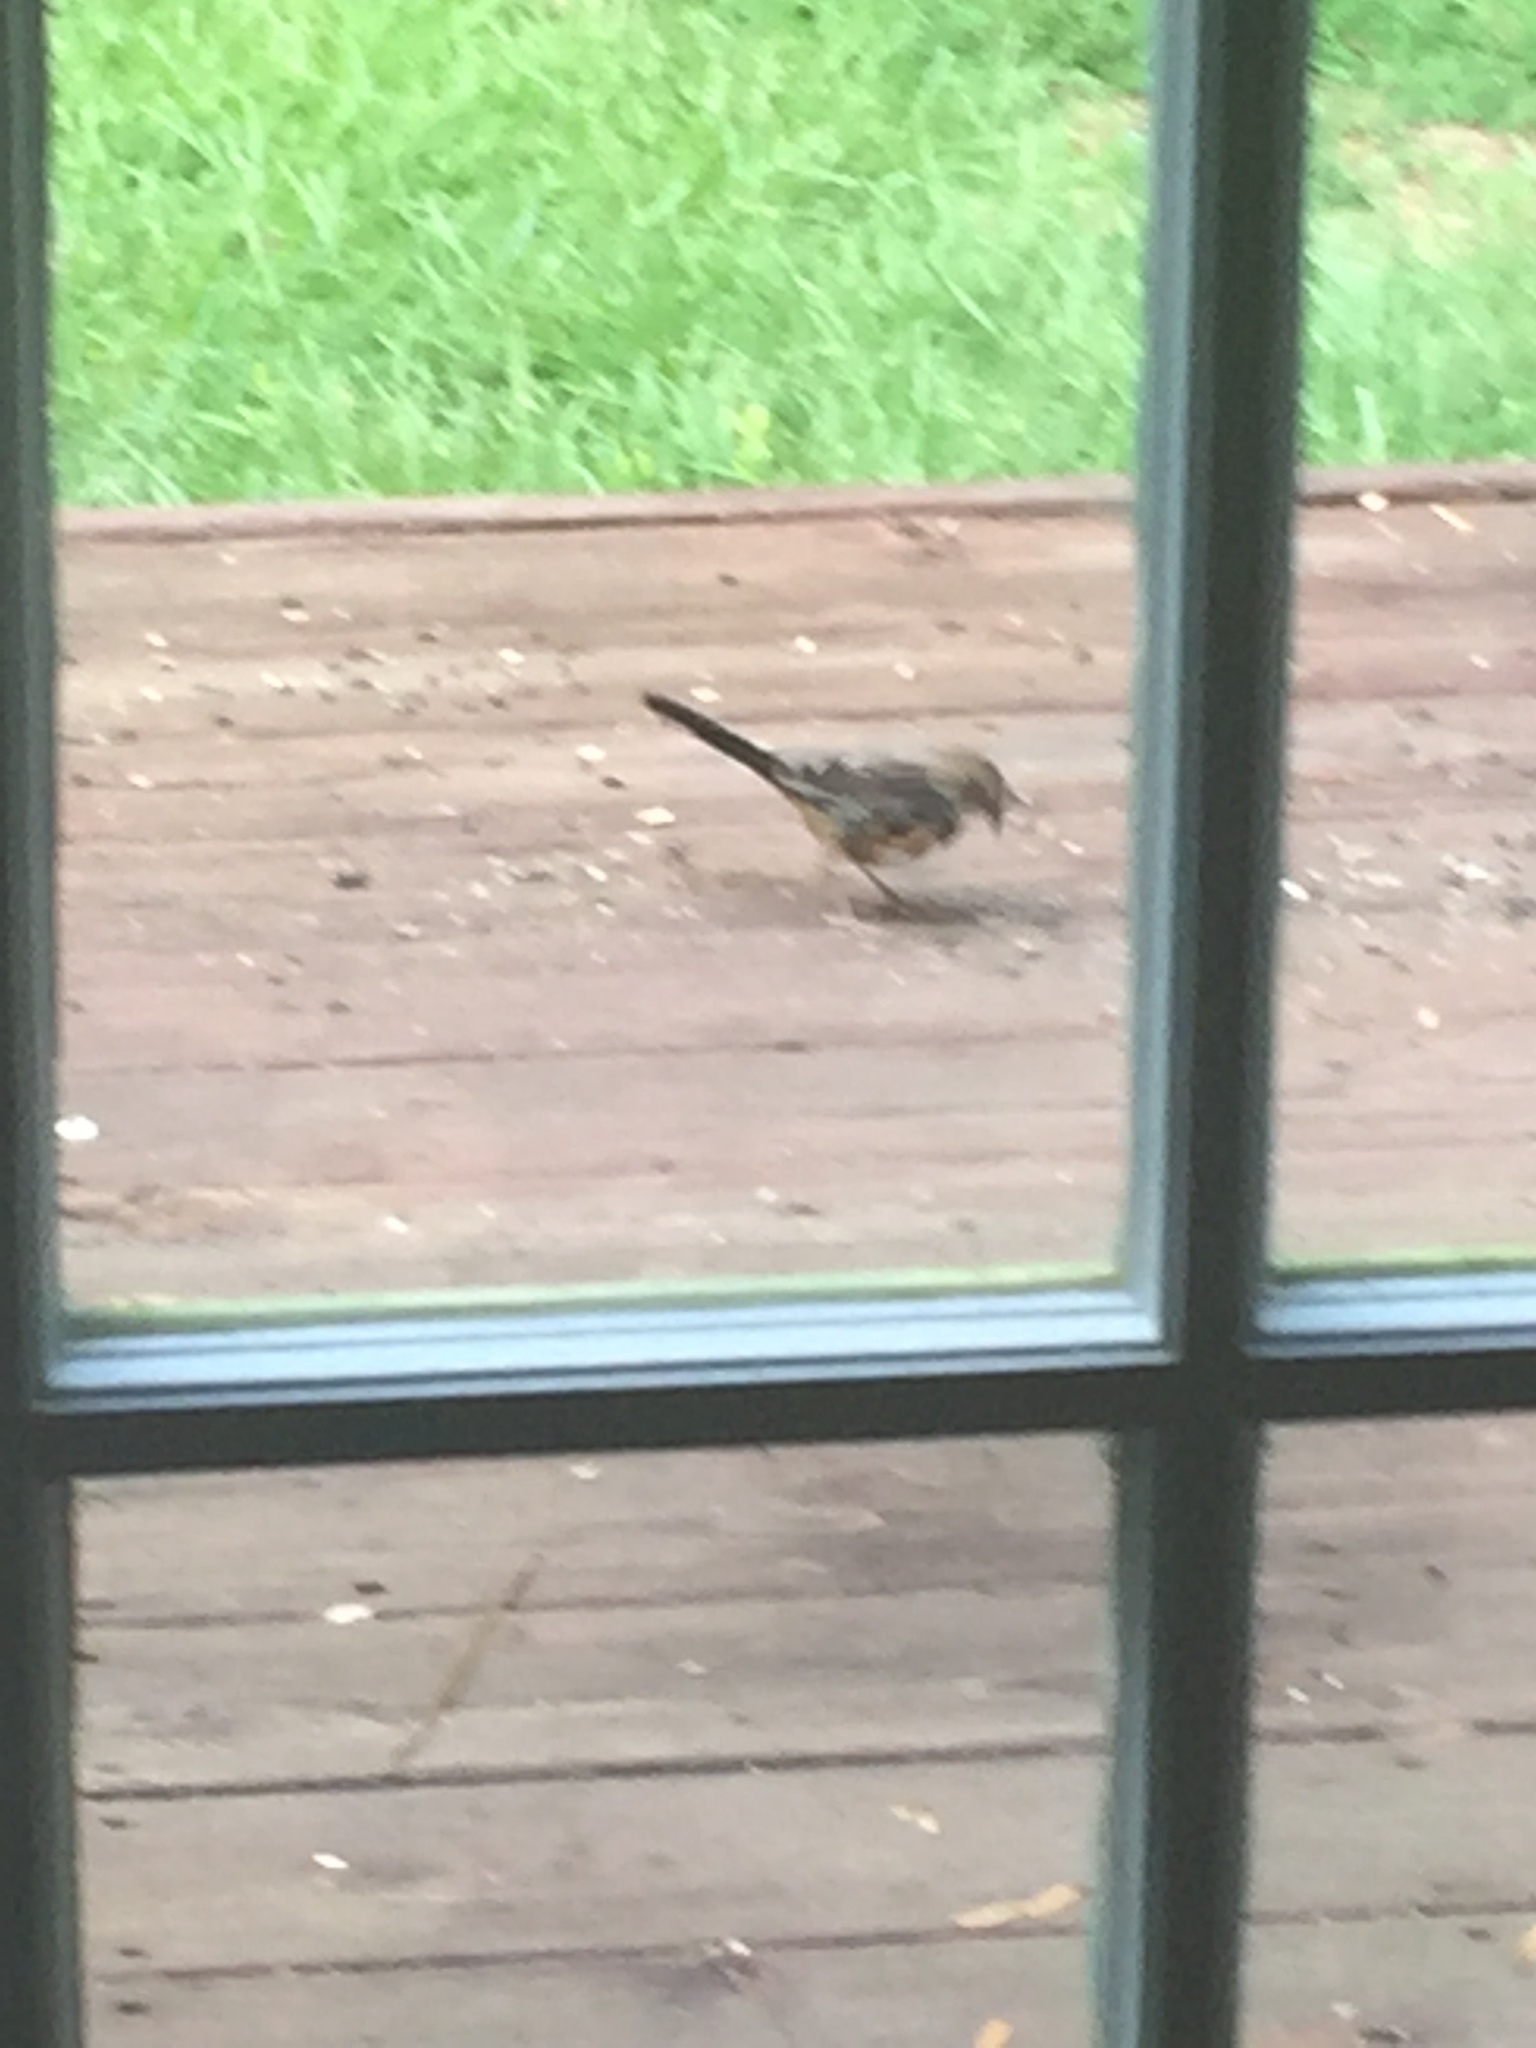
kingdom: Animalia
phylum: Chordata
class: Aves
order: Passeriformes
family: Passerellidae
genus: Pipilo
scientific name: Pipilo erythrophthalmus
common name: Eastern towhee
